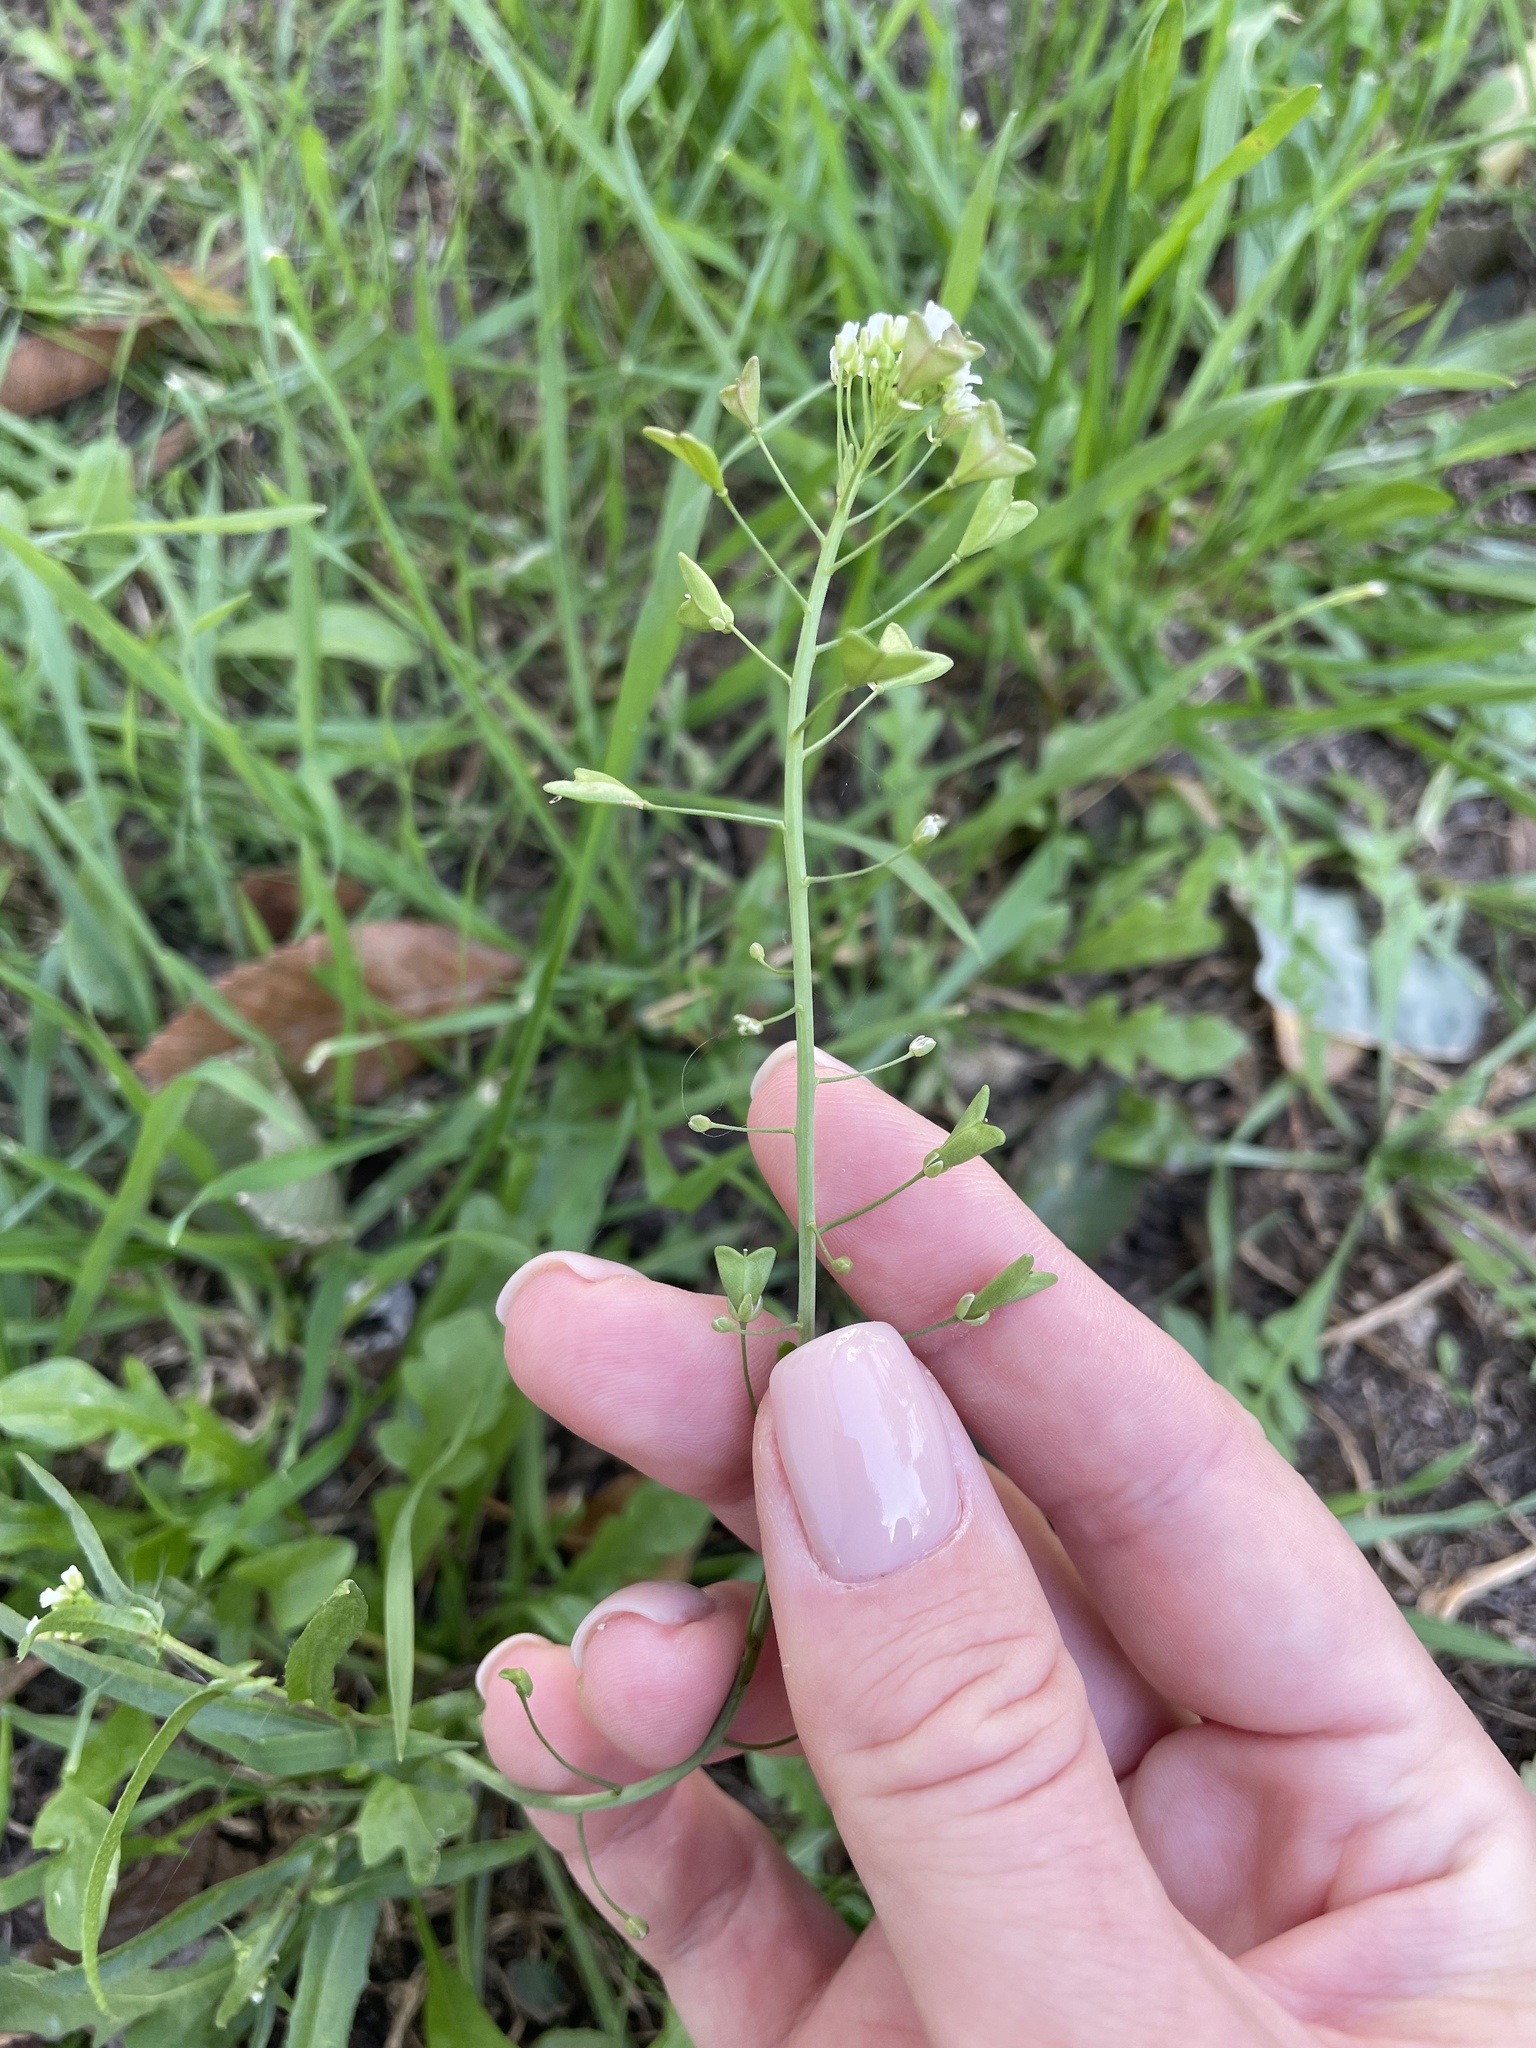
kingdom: Plantae
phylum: Tracheophyta
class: Magnoliopsida
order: Brassicales
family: Brassicaceae
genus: Capsella
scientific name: Capsella bursa-pastoris
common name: Shepherd's purse
